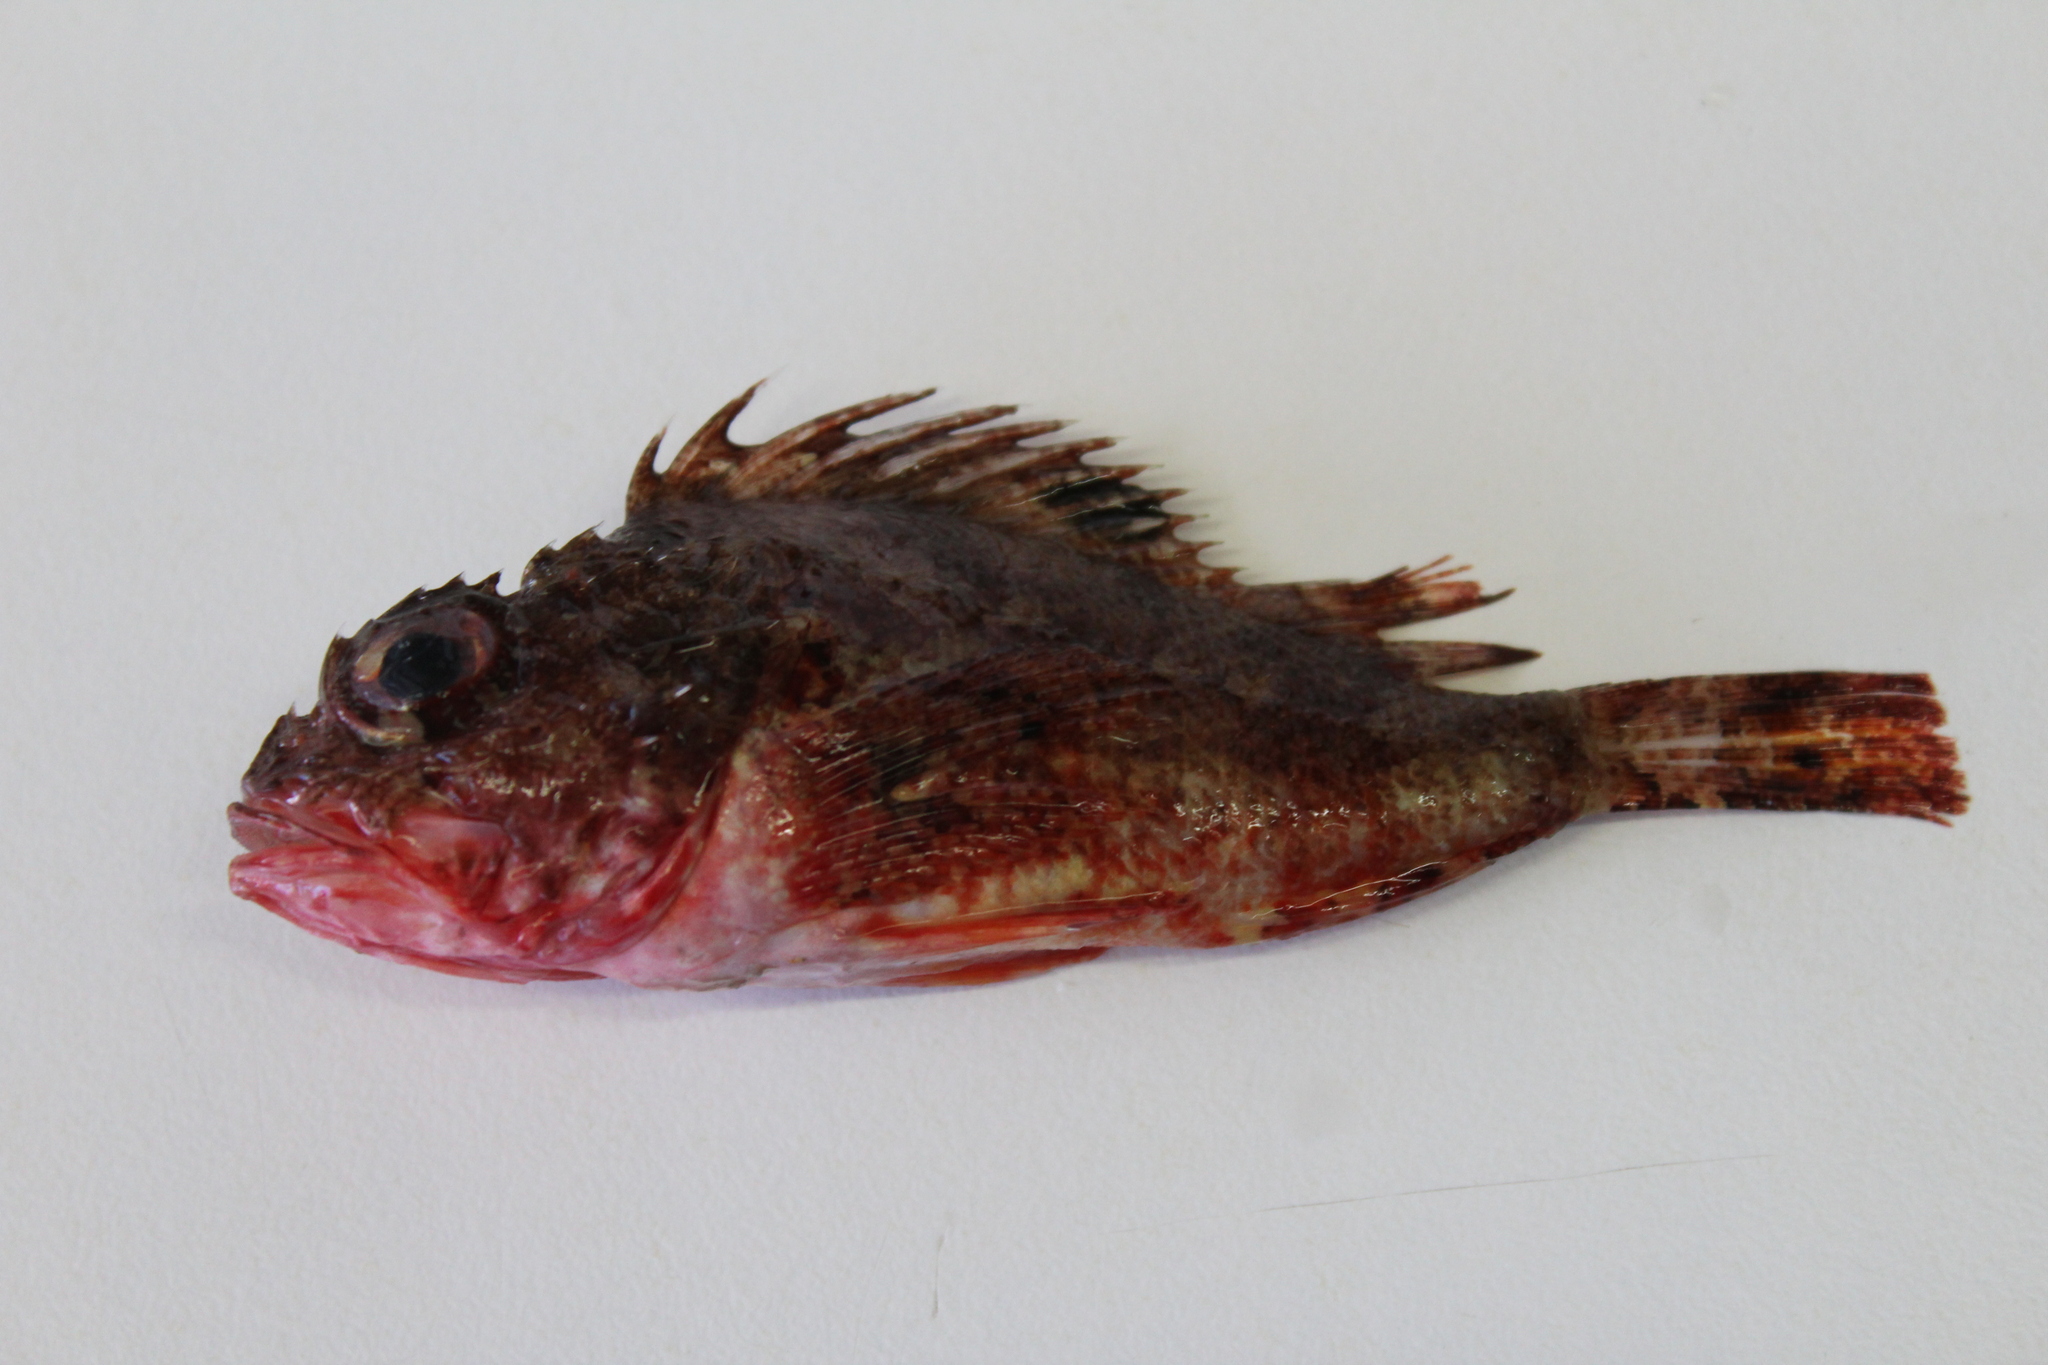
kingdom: Animalia
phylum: Chordata
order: Scorpaeniformes
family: Scorpaenidae
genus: Scorpaena
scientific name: Scorpaena notata
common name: Small red scorpionfish
